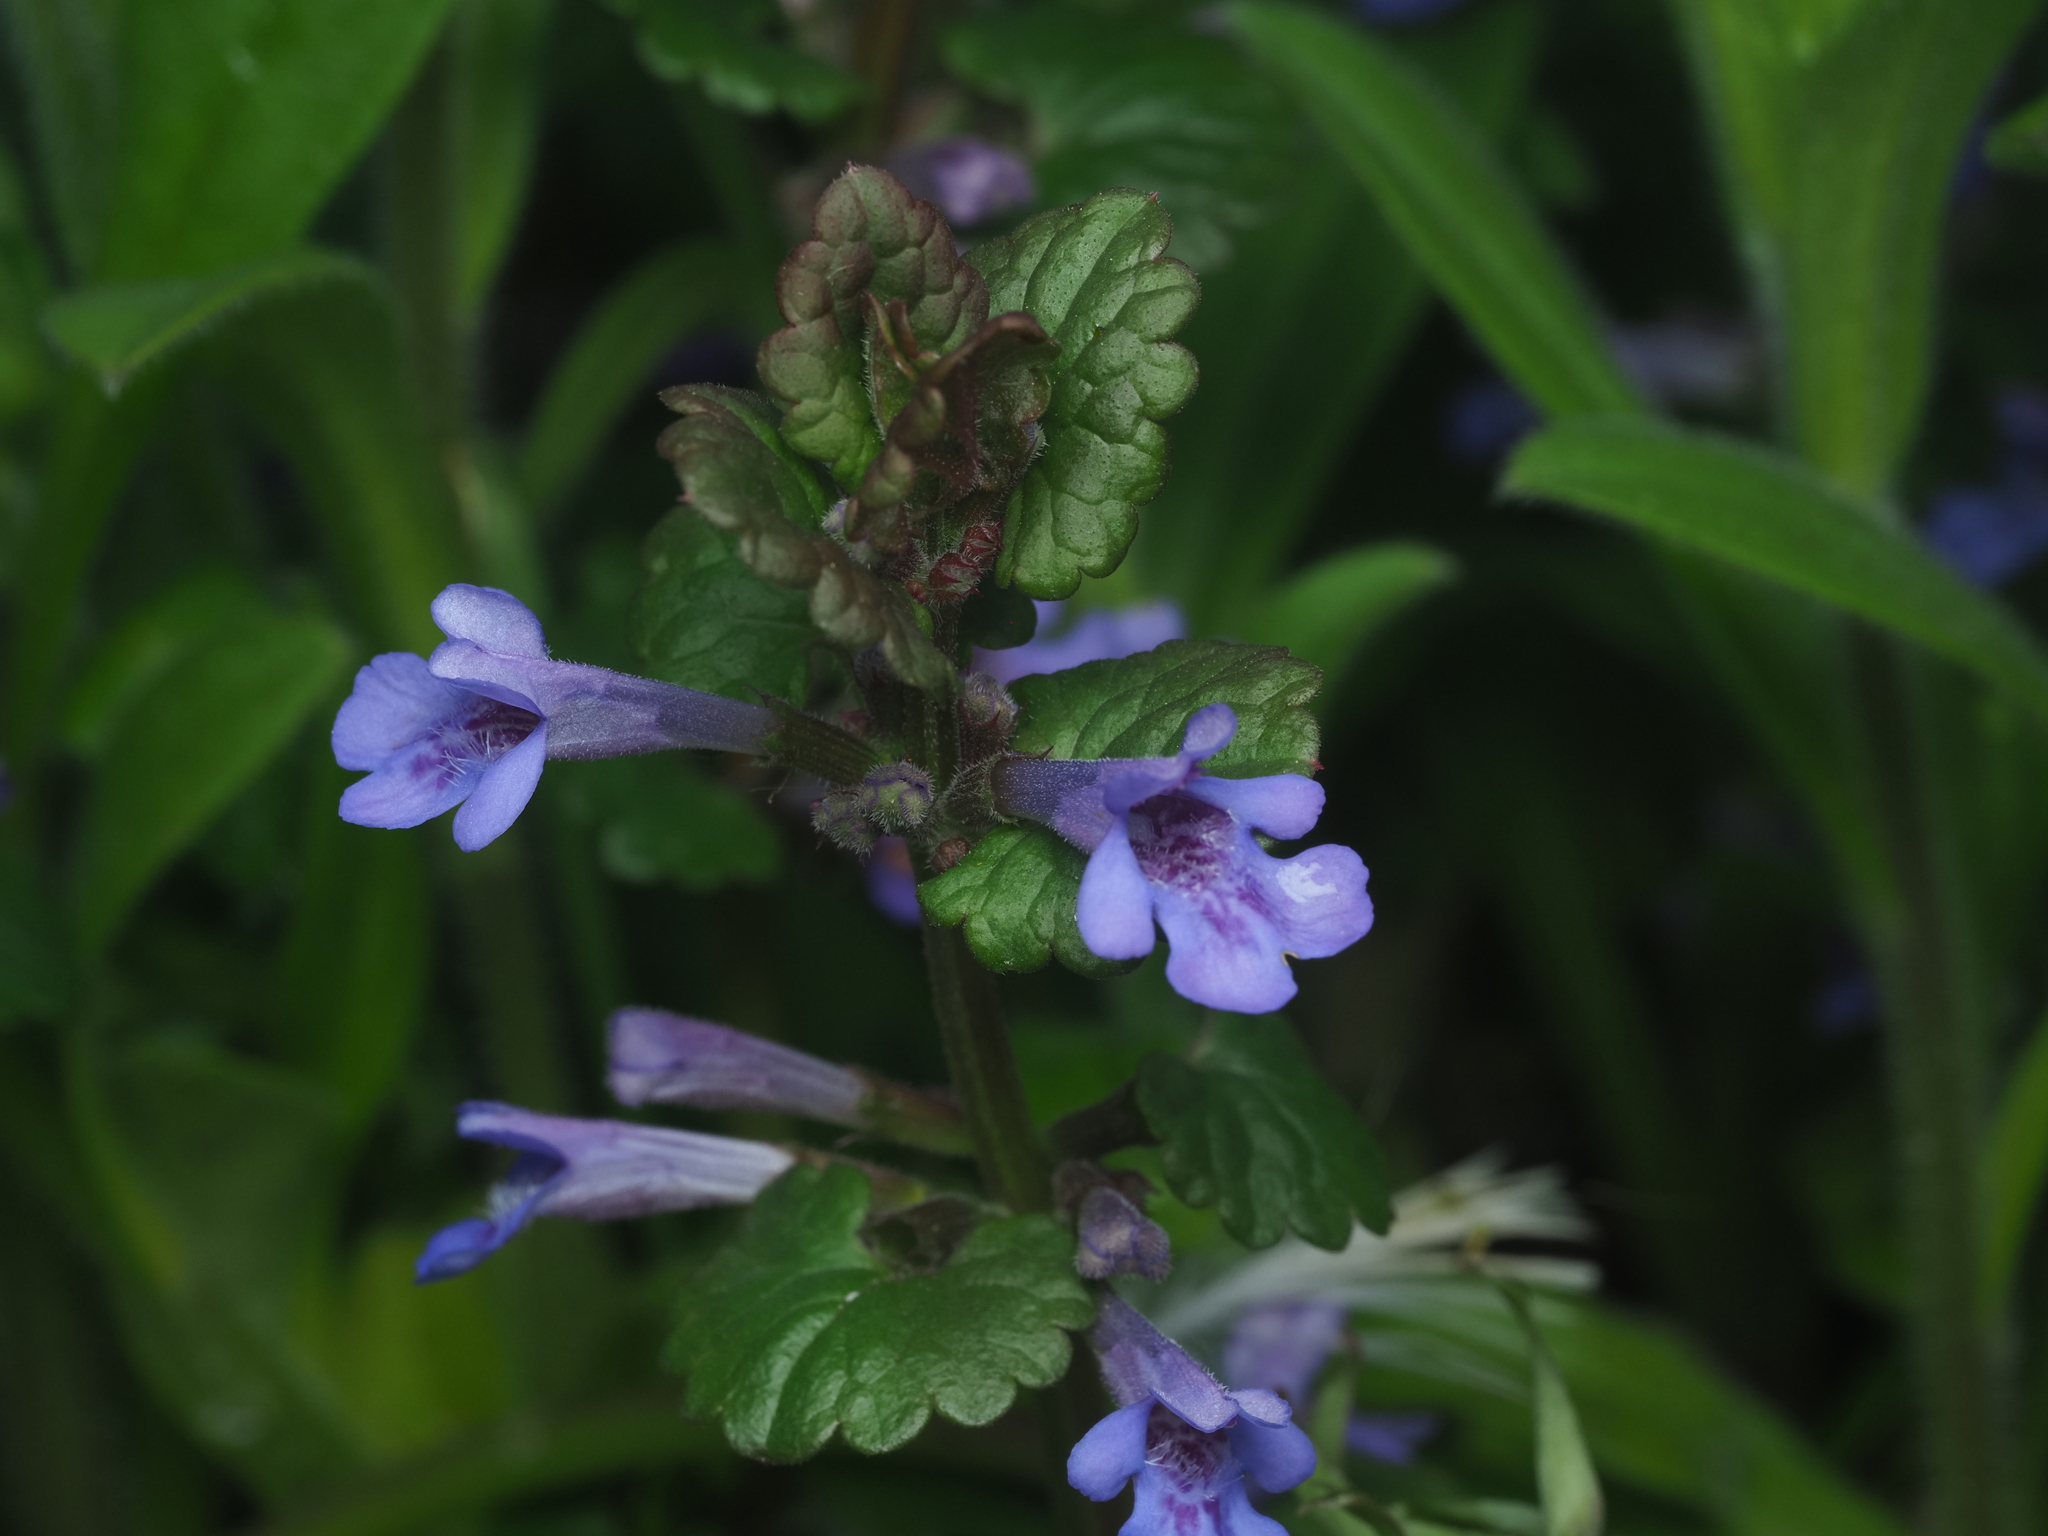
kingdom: Plantae
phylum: Tracheophyta
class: Magnoliopsida
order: Lamiales
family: Lamiaceae
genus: Glechoma
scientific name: Glechoma hederacea
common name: Ground ivy
